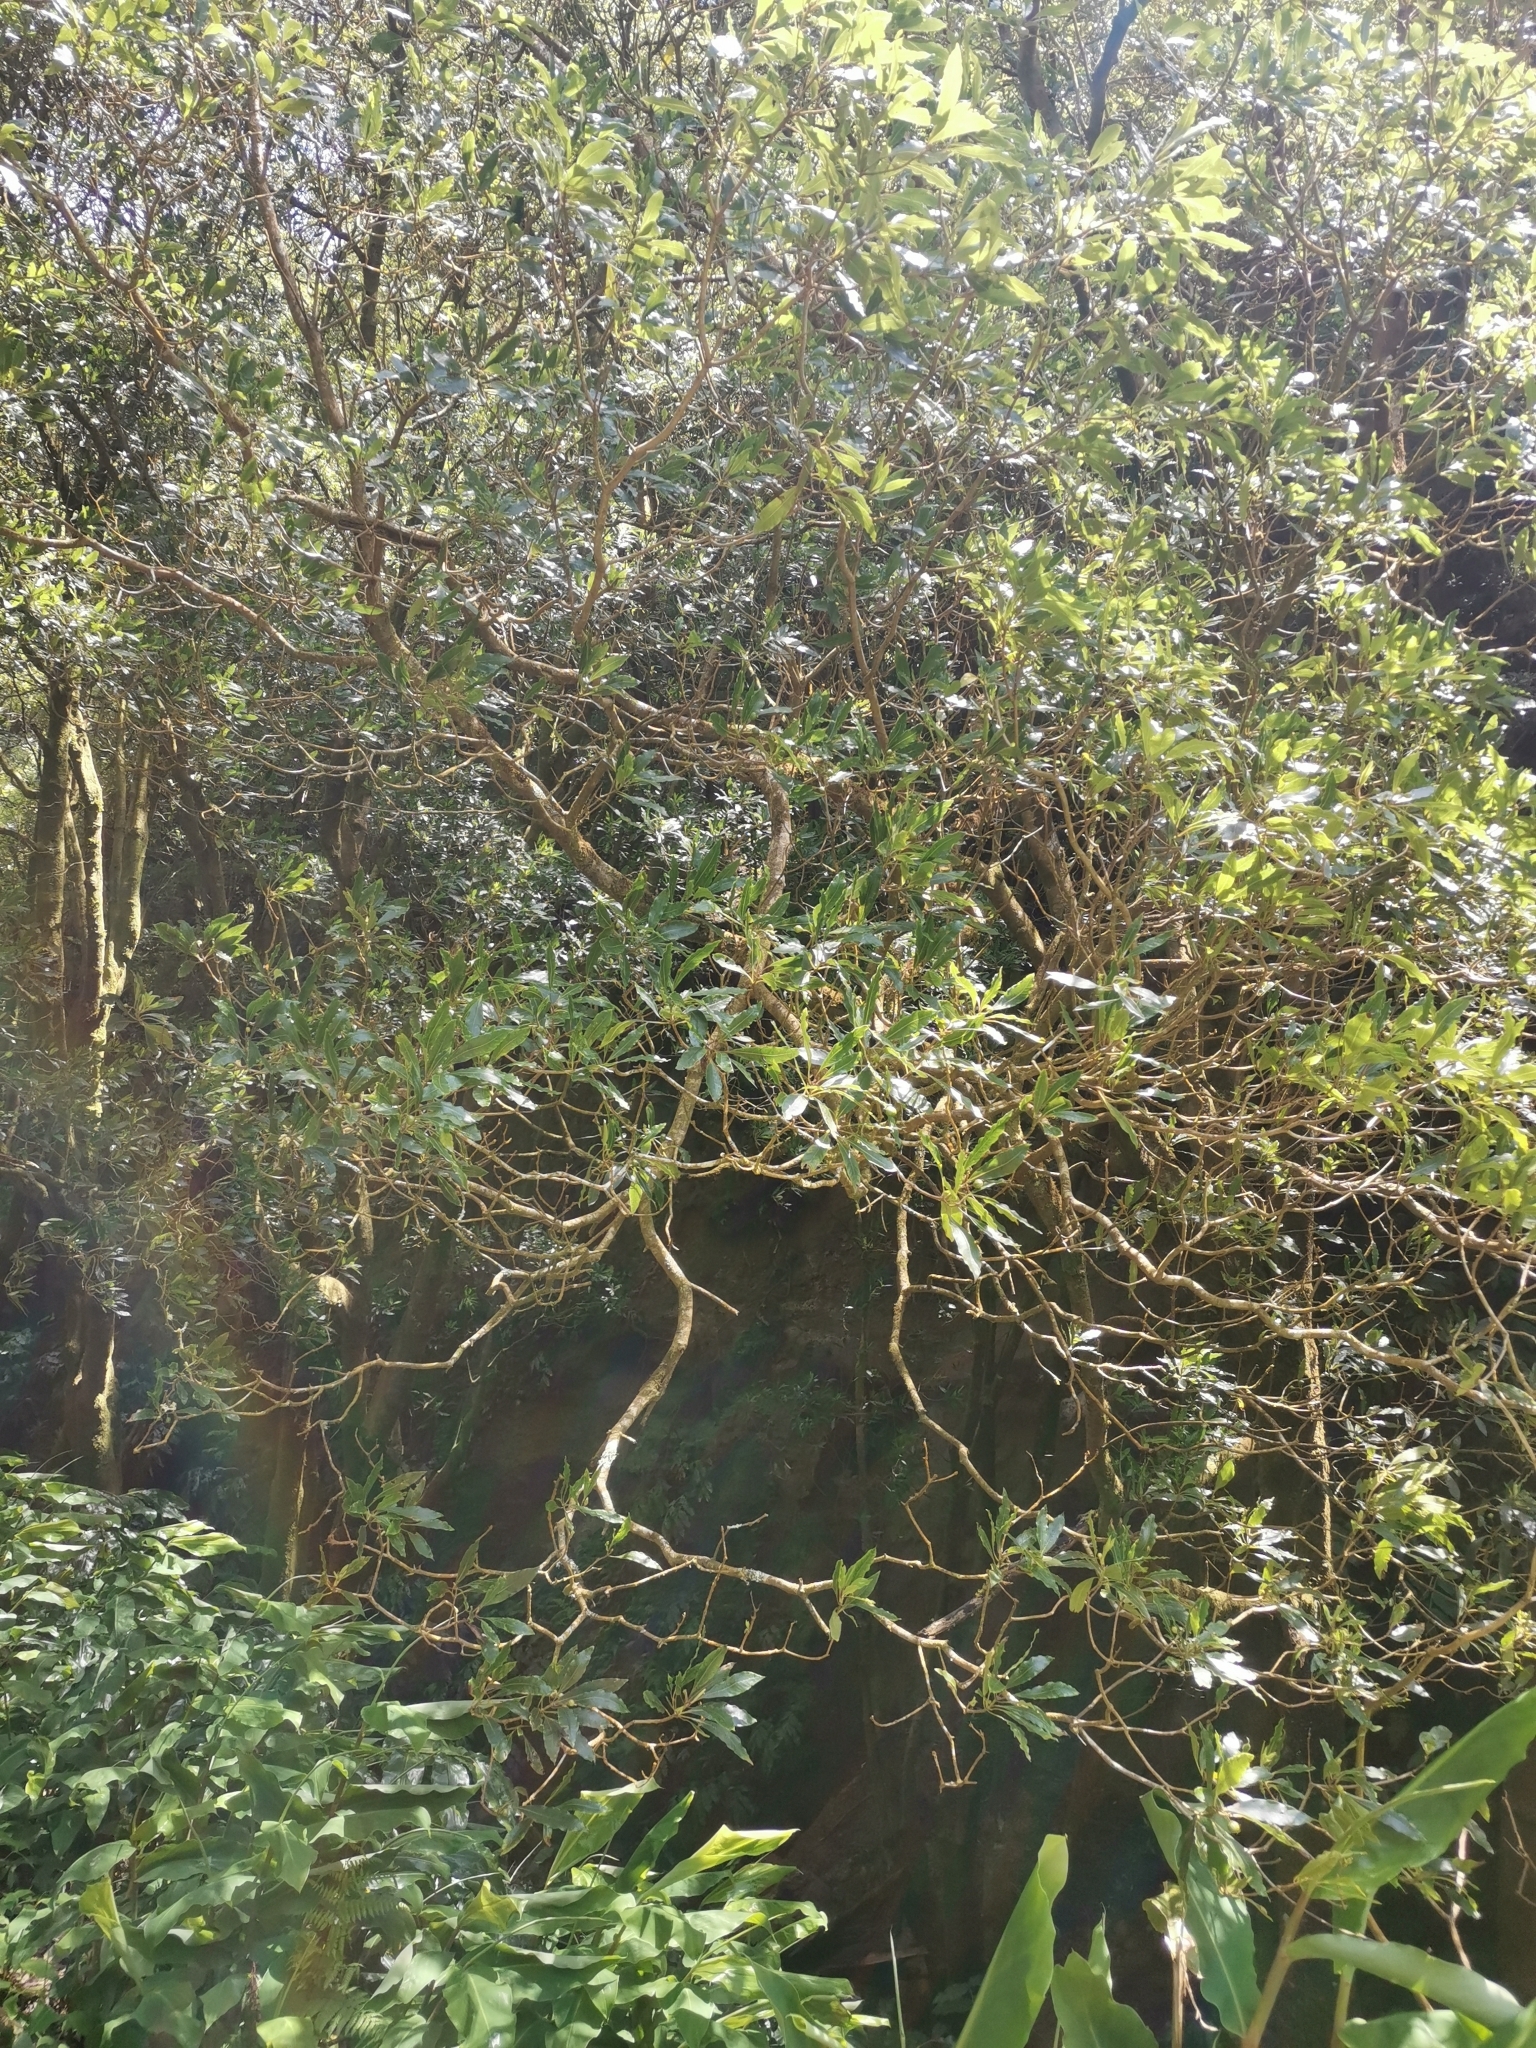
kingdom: Plantae
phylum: Tracheophyta
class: Magnoliopsida
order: Apiales
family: Pittosporaceae
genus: Pittosporum
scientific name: Pittosporum undulatum
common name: Australian cheesewood
